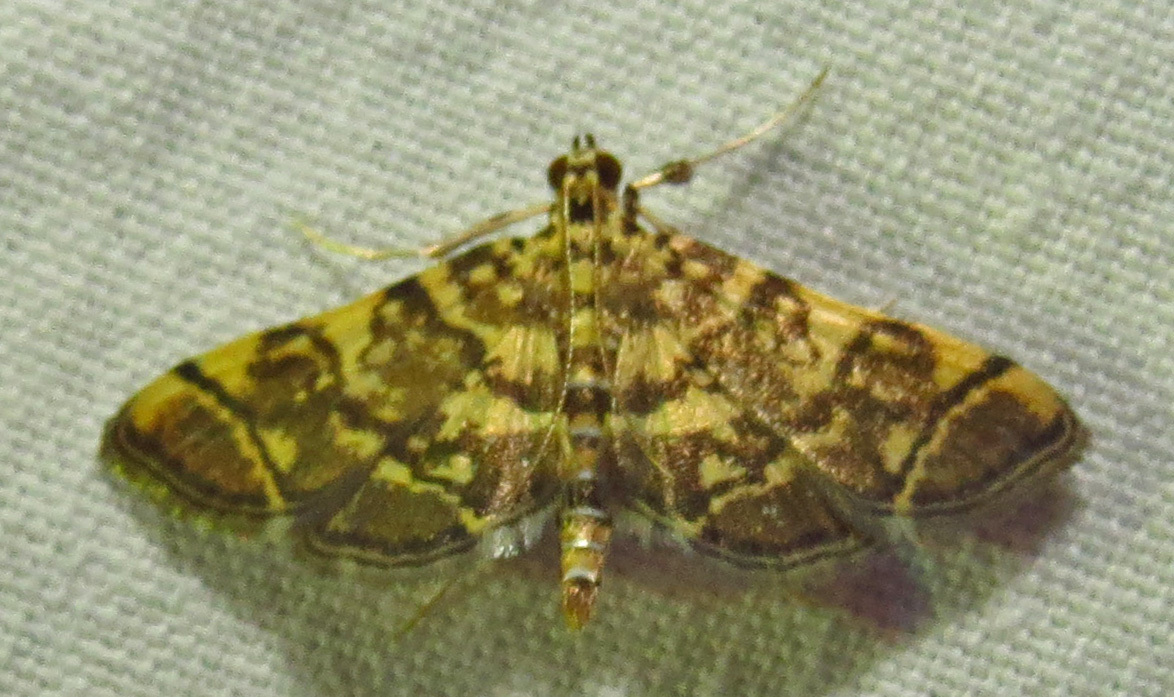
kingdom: Animalia
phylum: Arthropoda
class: Insecta
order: Lepidoptera
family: Crambidae
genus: Anageshna
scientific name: Anageshna primordialis
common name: Yellow-spotted webworm moth
